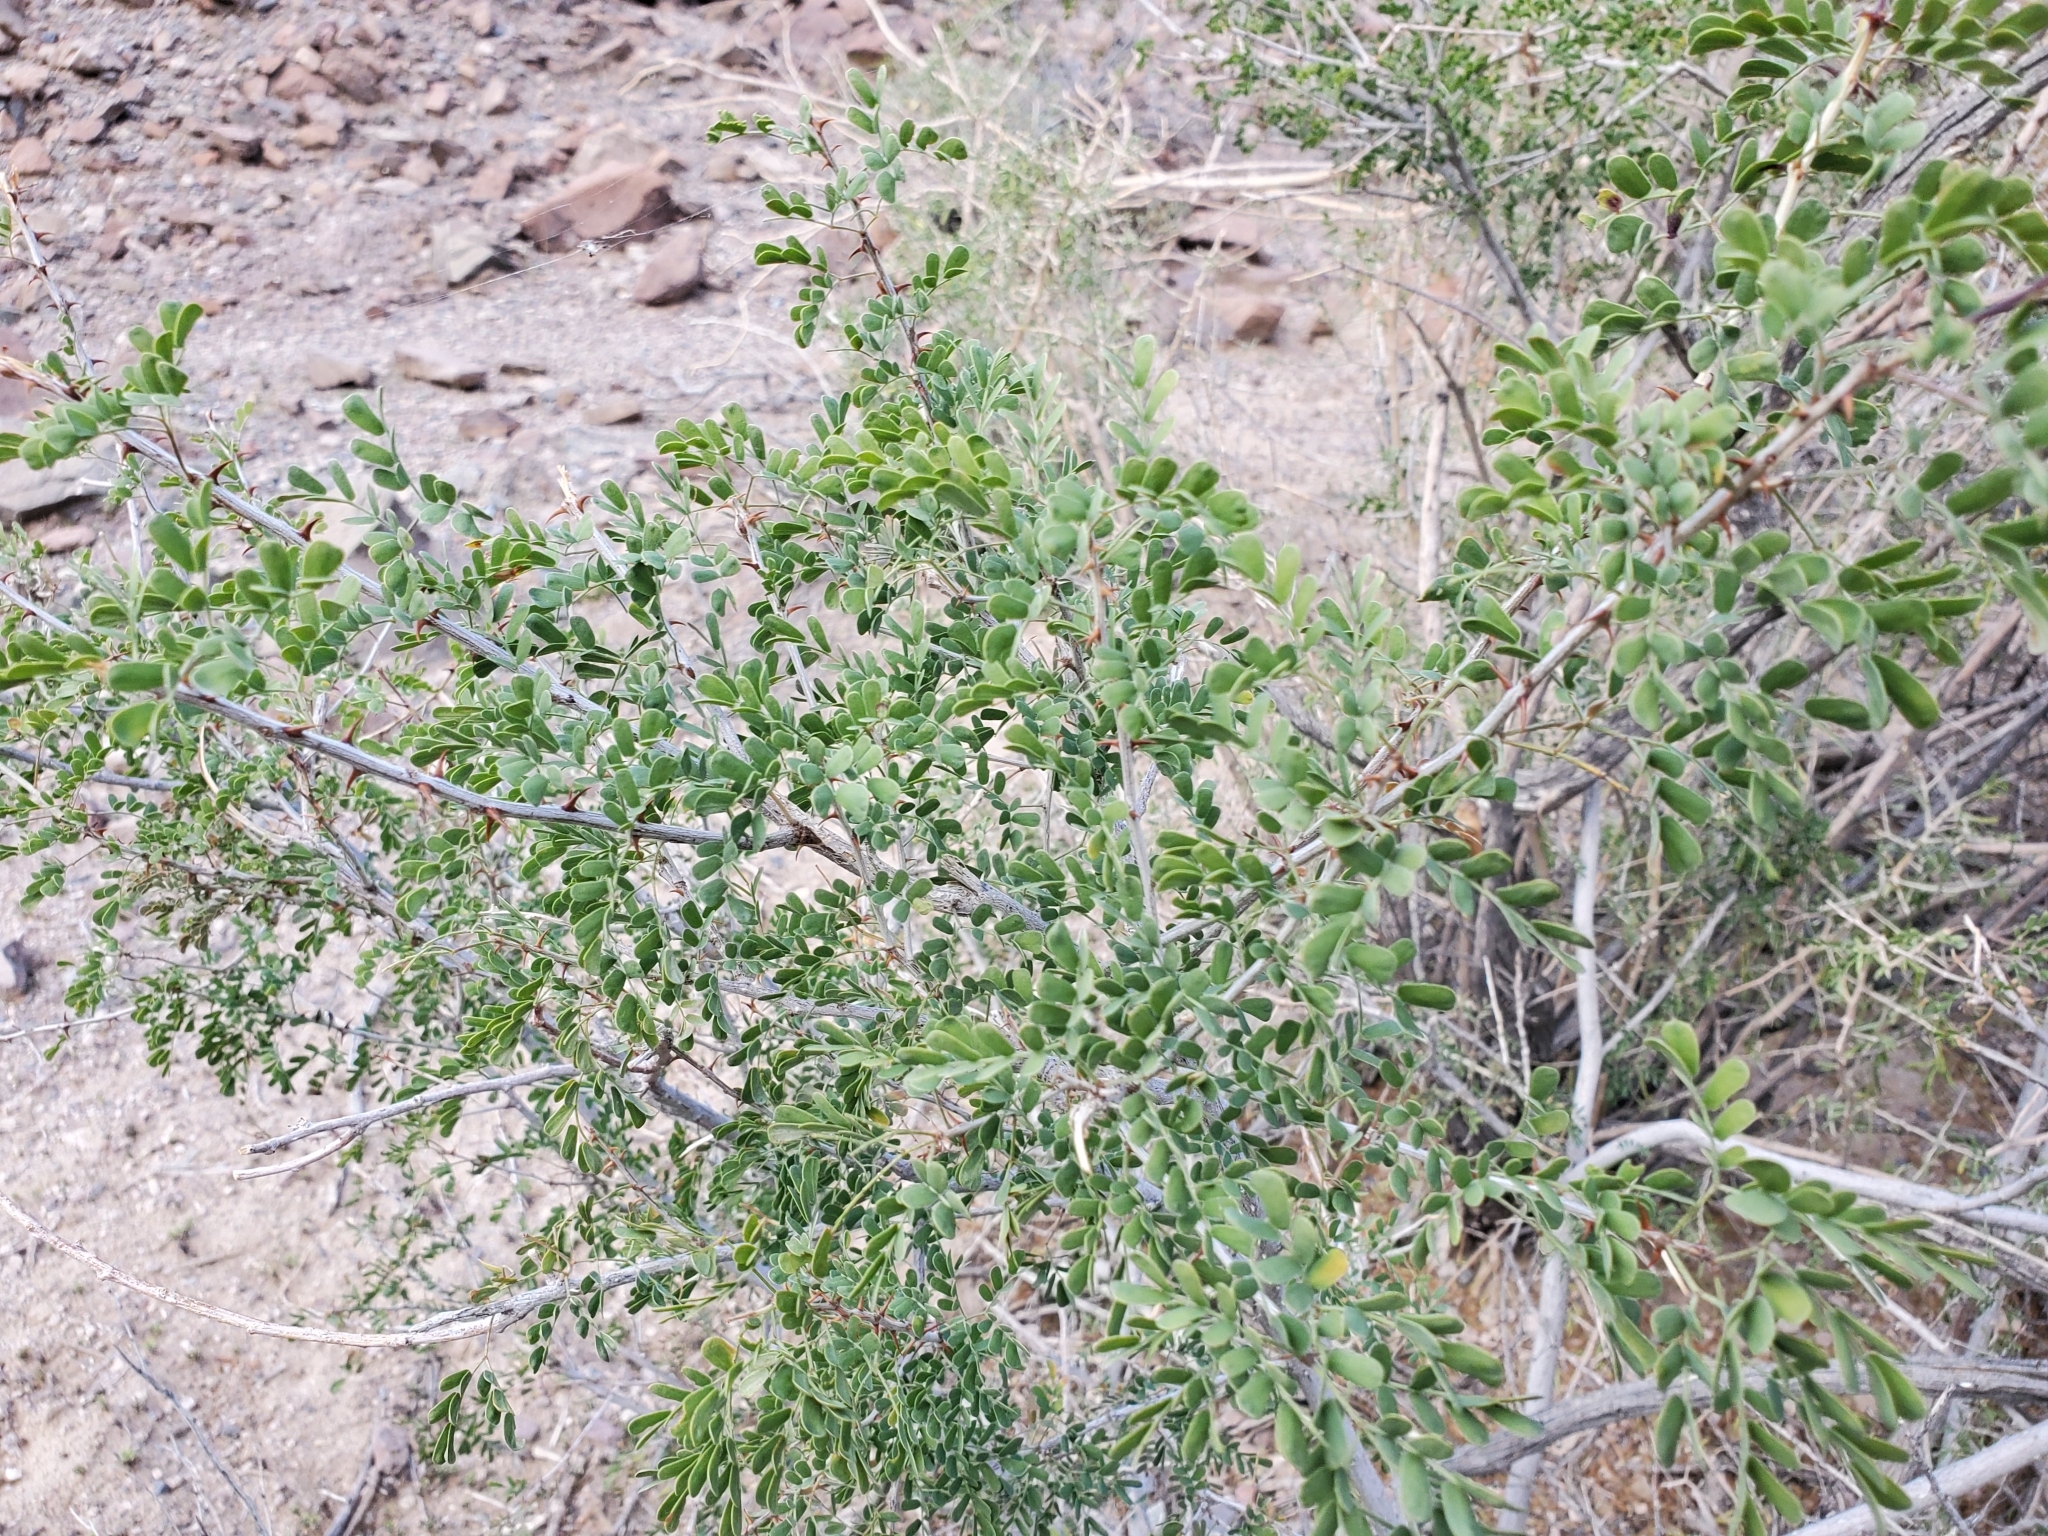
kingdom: Plantae
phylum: Tracheophyta
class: Magnoliopsida
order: Fabales
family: Fabaceae
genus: Senegalia
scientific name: Senegalia greggii
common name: Texas-mimosa
